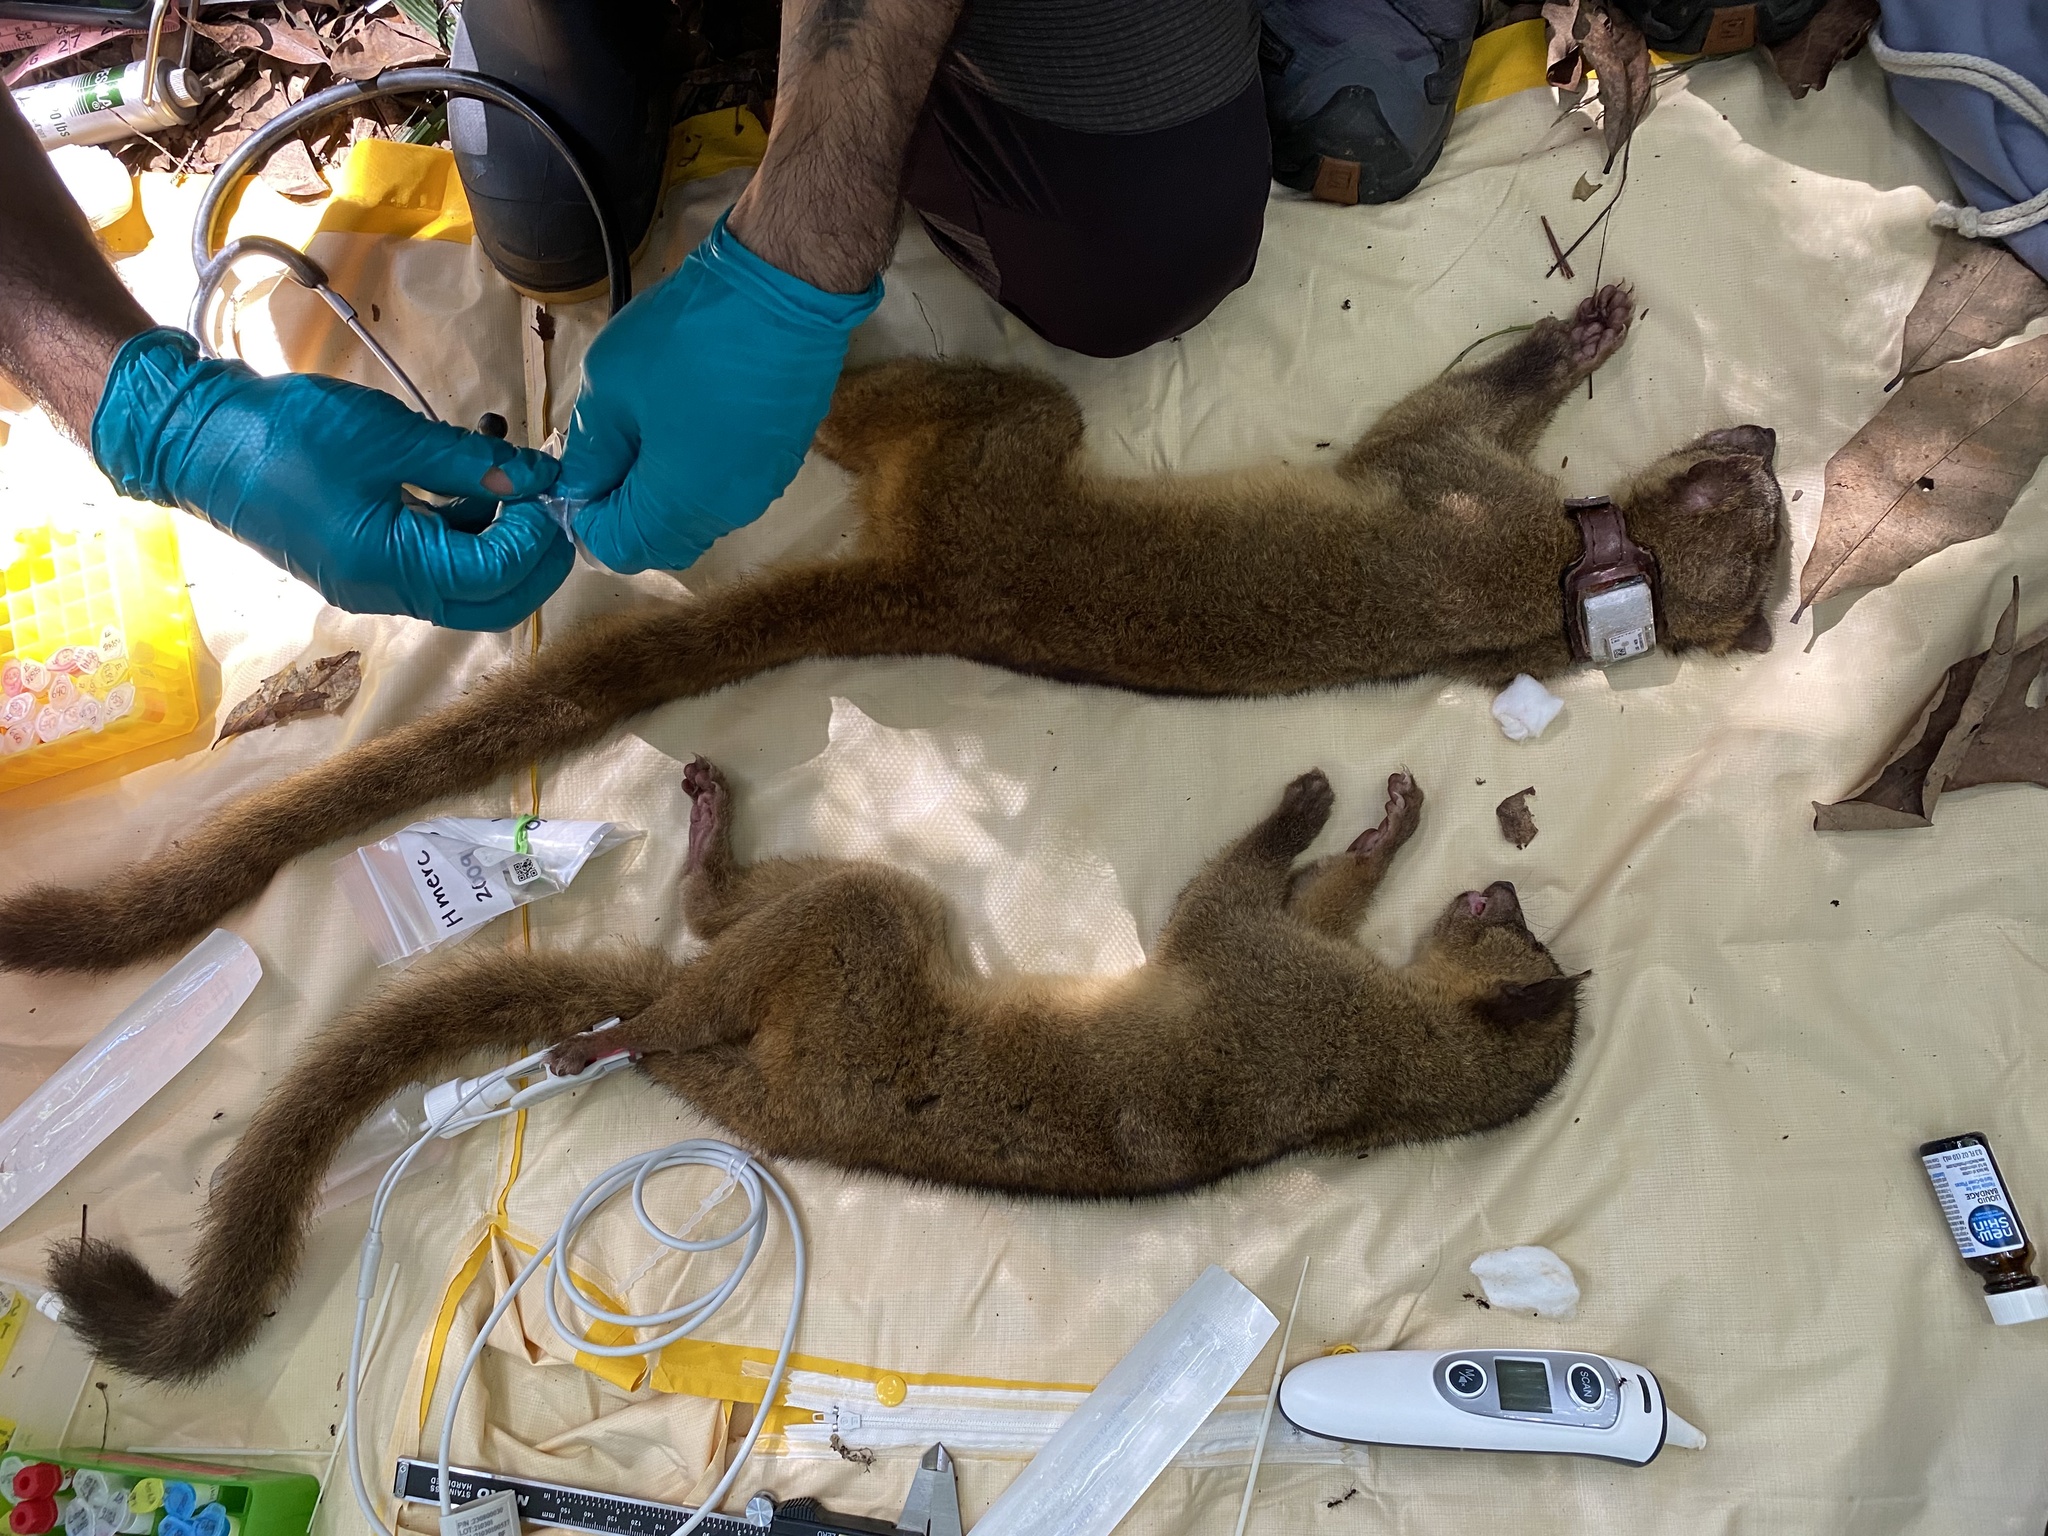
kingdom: Animalia
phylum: Chordata
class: Mammalia
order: Carnivora
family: Procyonidae
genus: Bassaricyon
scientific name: Bassaricyon alleni
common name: Allen's olingo
